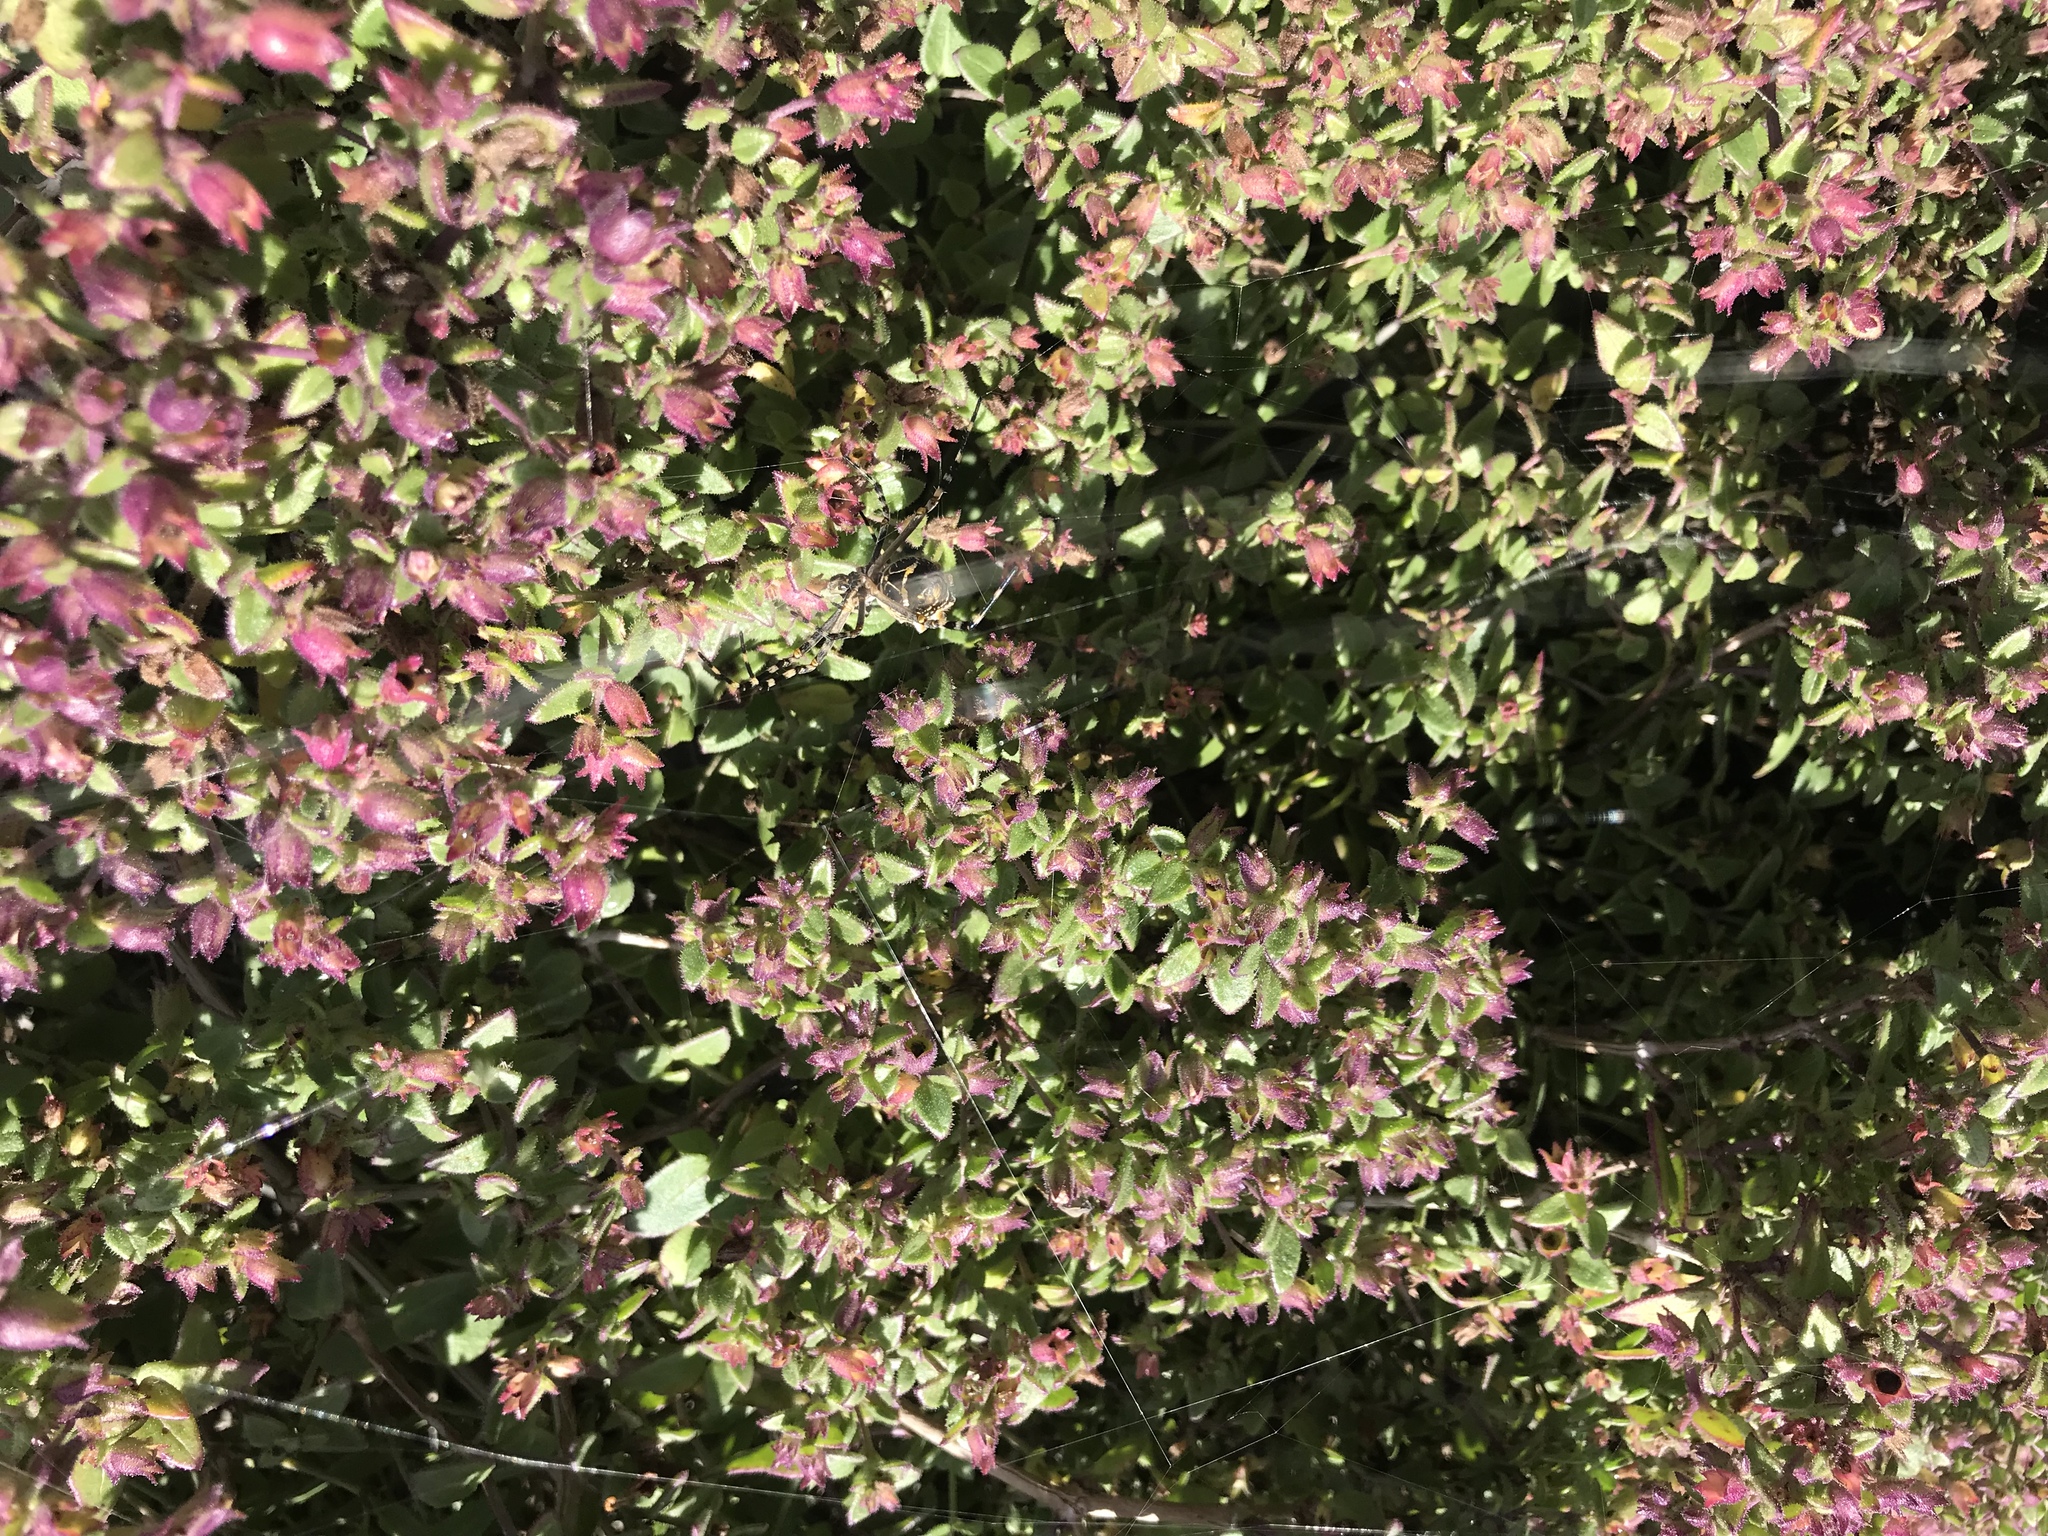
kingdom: Plantae
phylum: Tracheophyta
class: Magnoliopsida
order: Caryophyllales
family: Nyctaginaceae
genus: Mirabilis
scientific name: Mirabilis laevis
